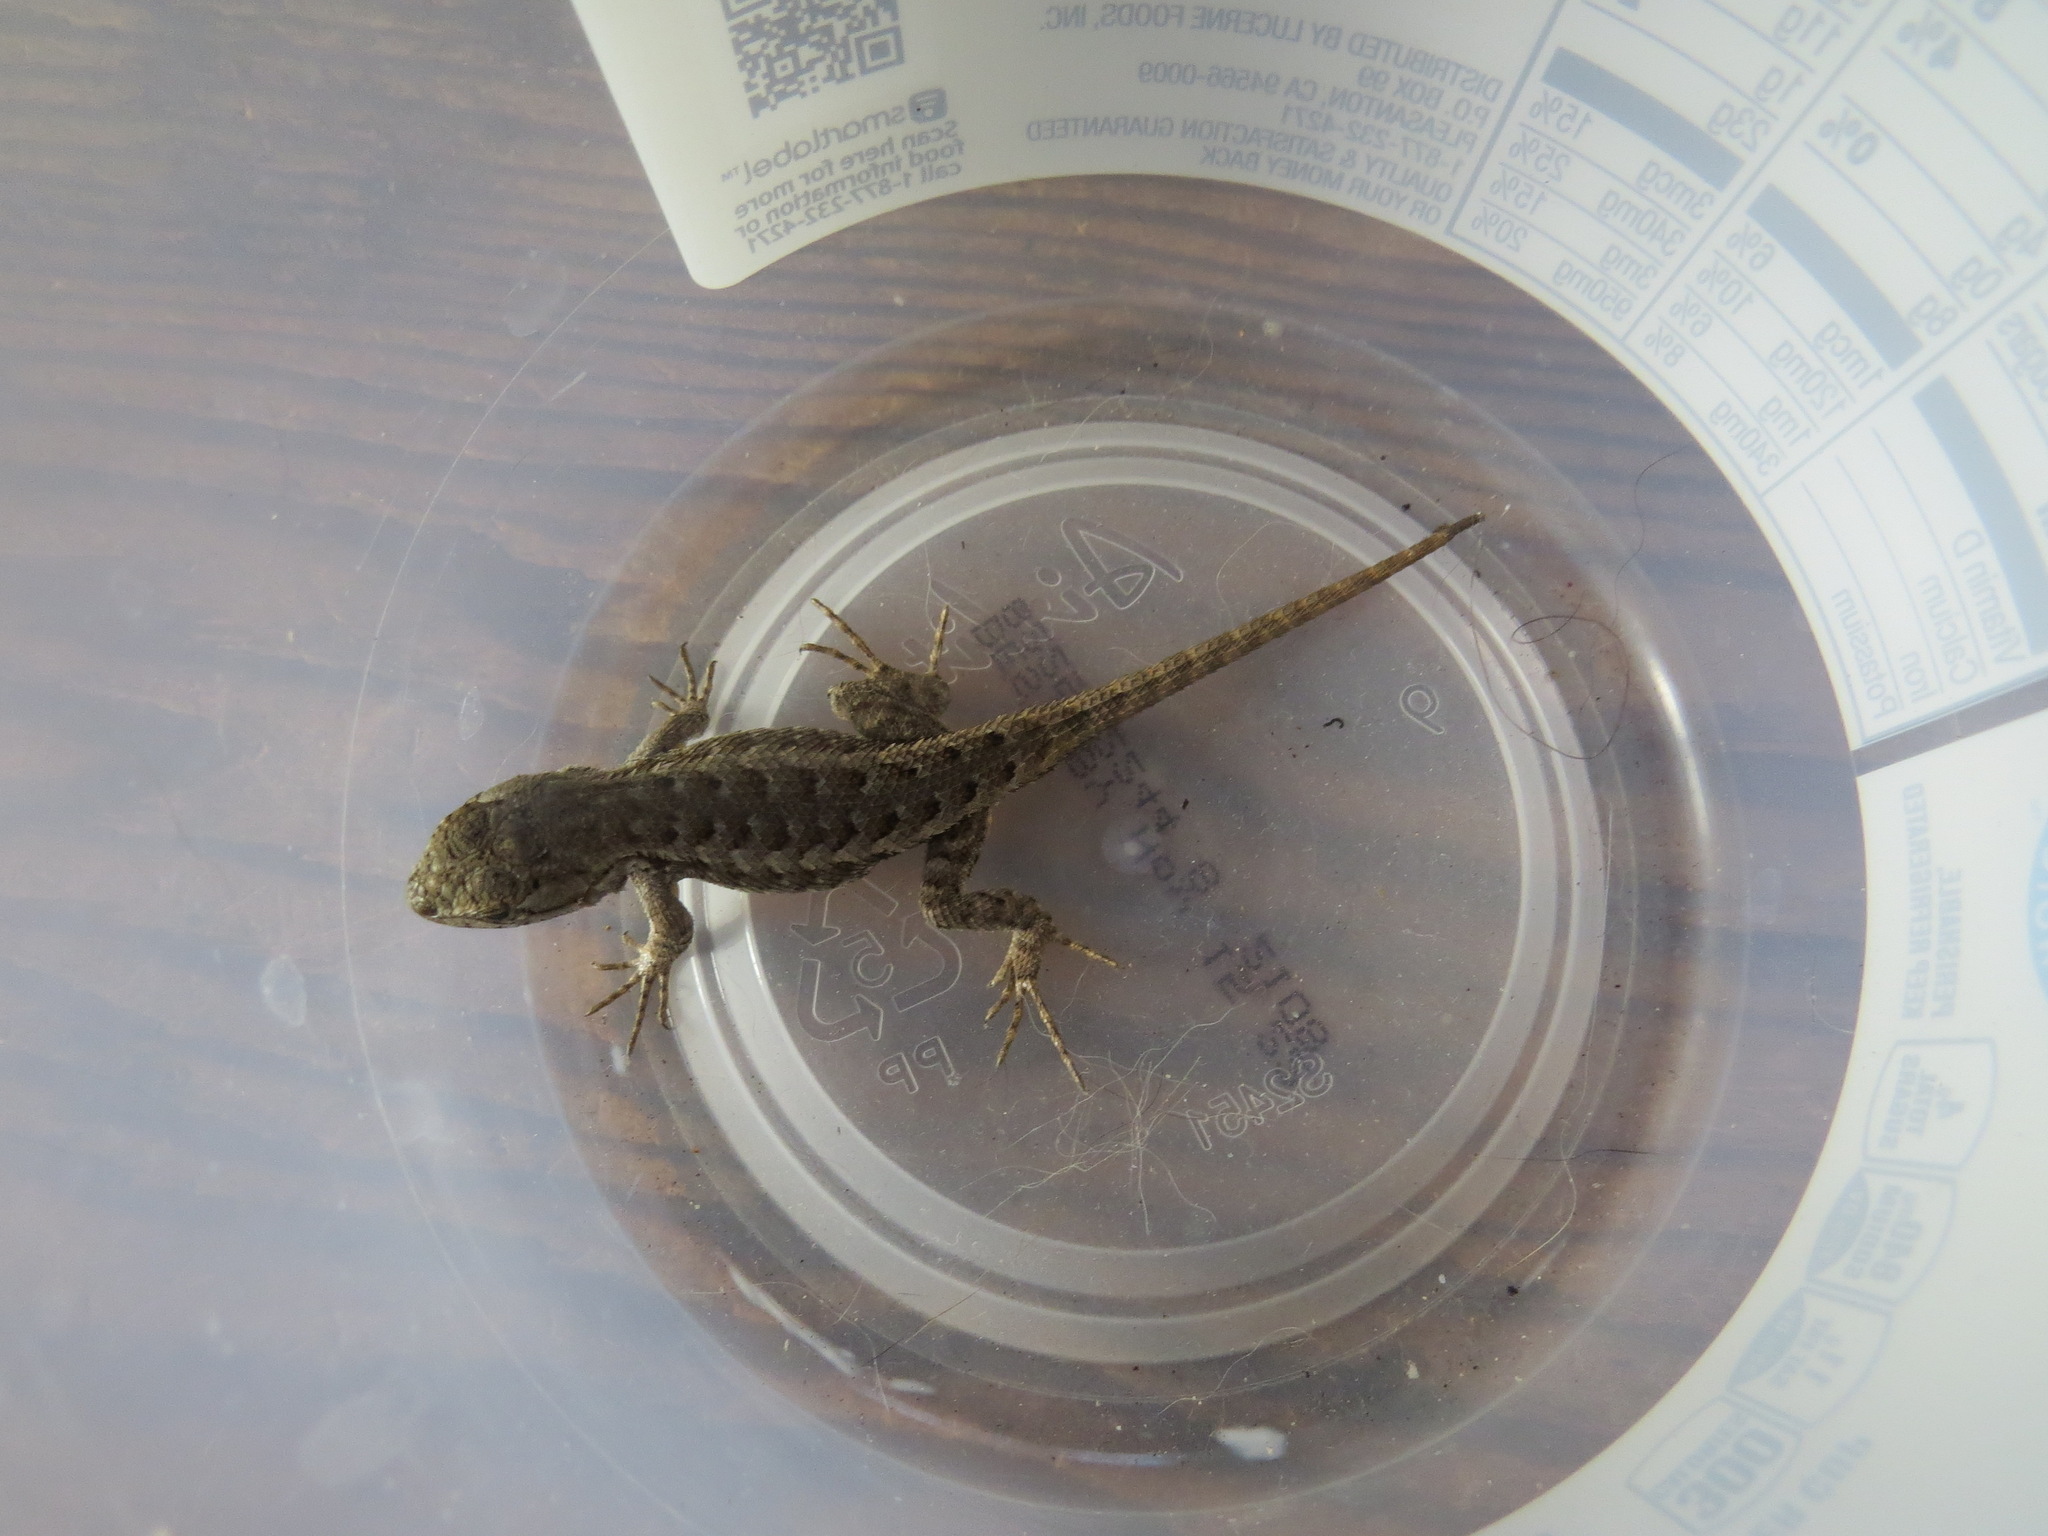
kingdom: Animalia
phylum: Chordata
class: Squamata
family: Phrynosomatidae
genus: Sceloporus
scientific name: Sceloporus occidentalis
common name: Western fence lizard
